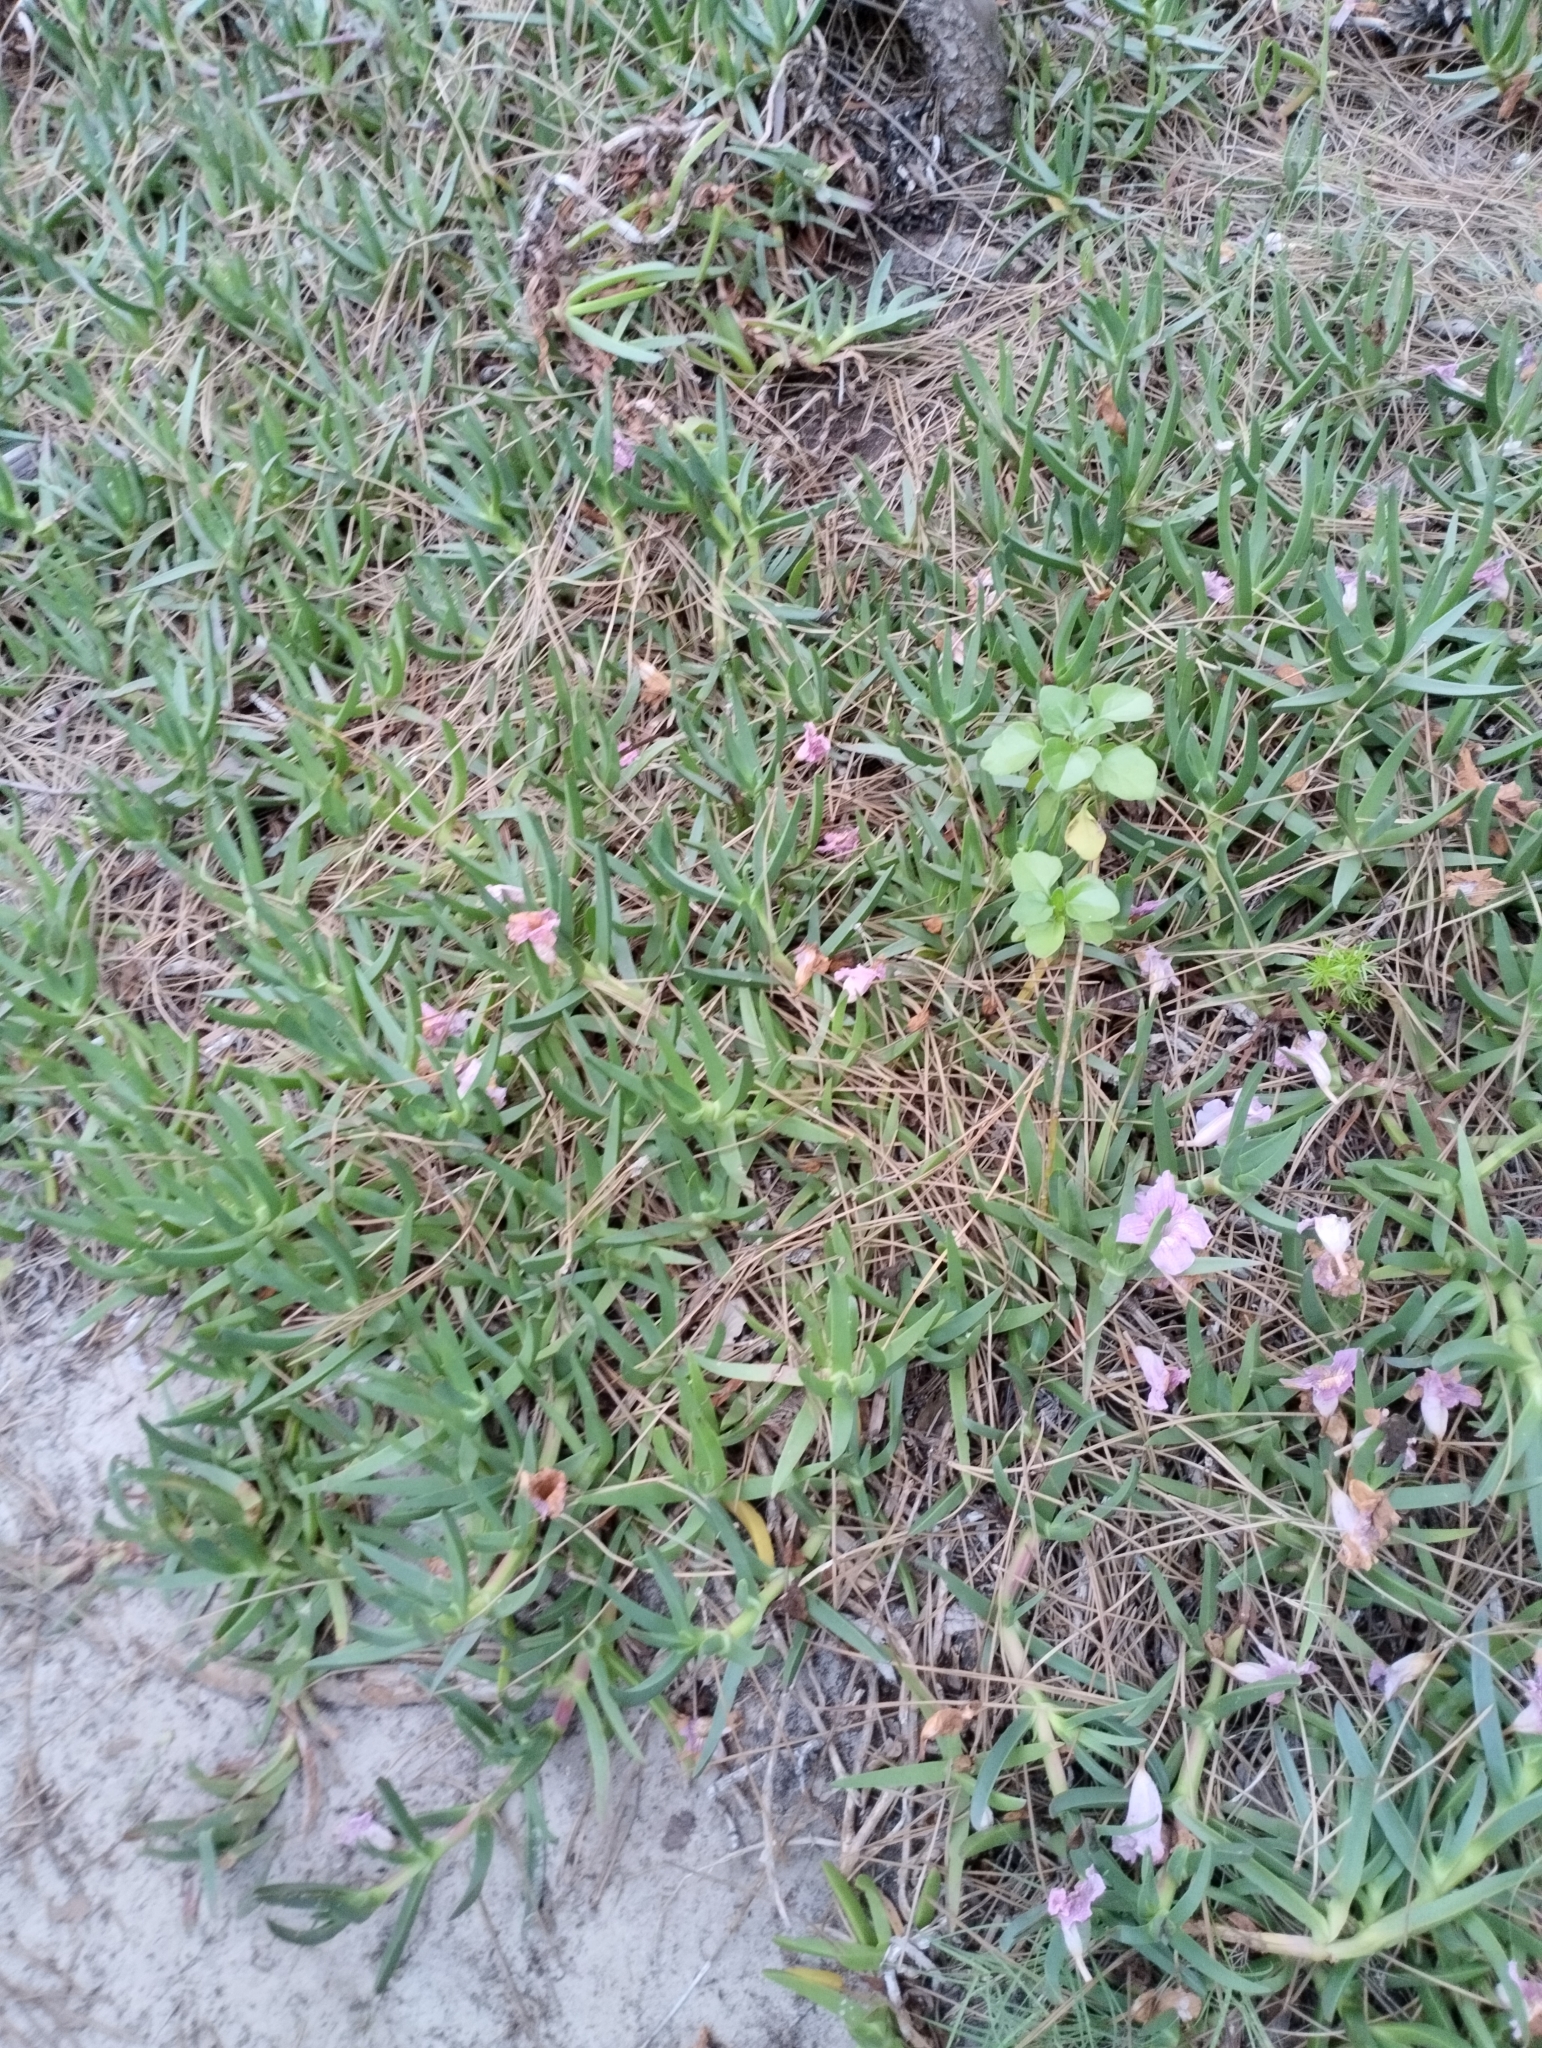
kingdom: Plantae
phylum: Tracheophyta
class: Magnoliopsida
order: Caryophyllales
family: Aizoaceae
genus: Carpobrotus
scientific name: Carpobrotus edulis
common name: Hottentot-fig
